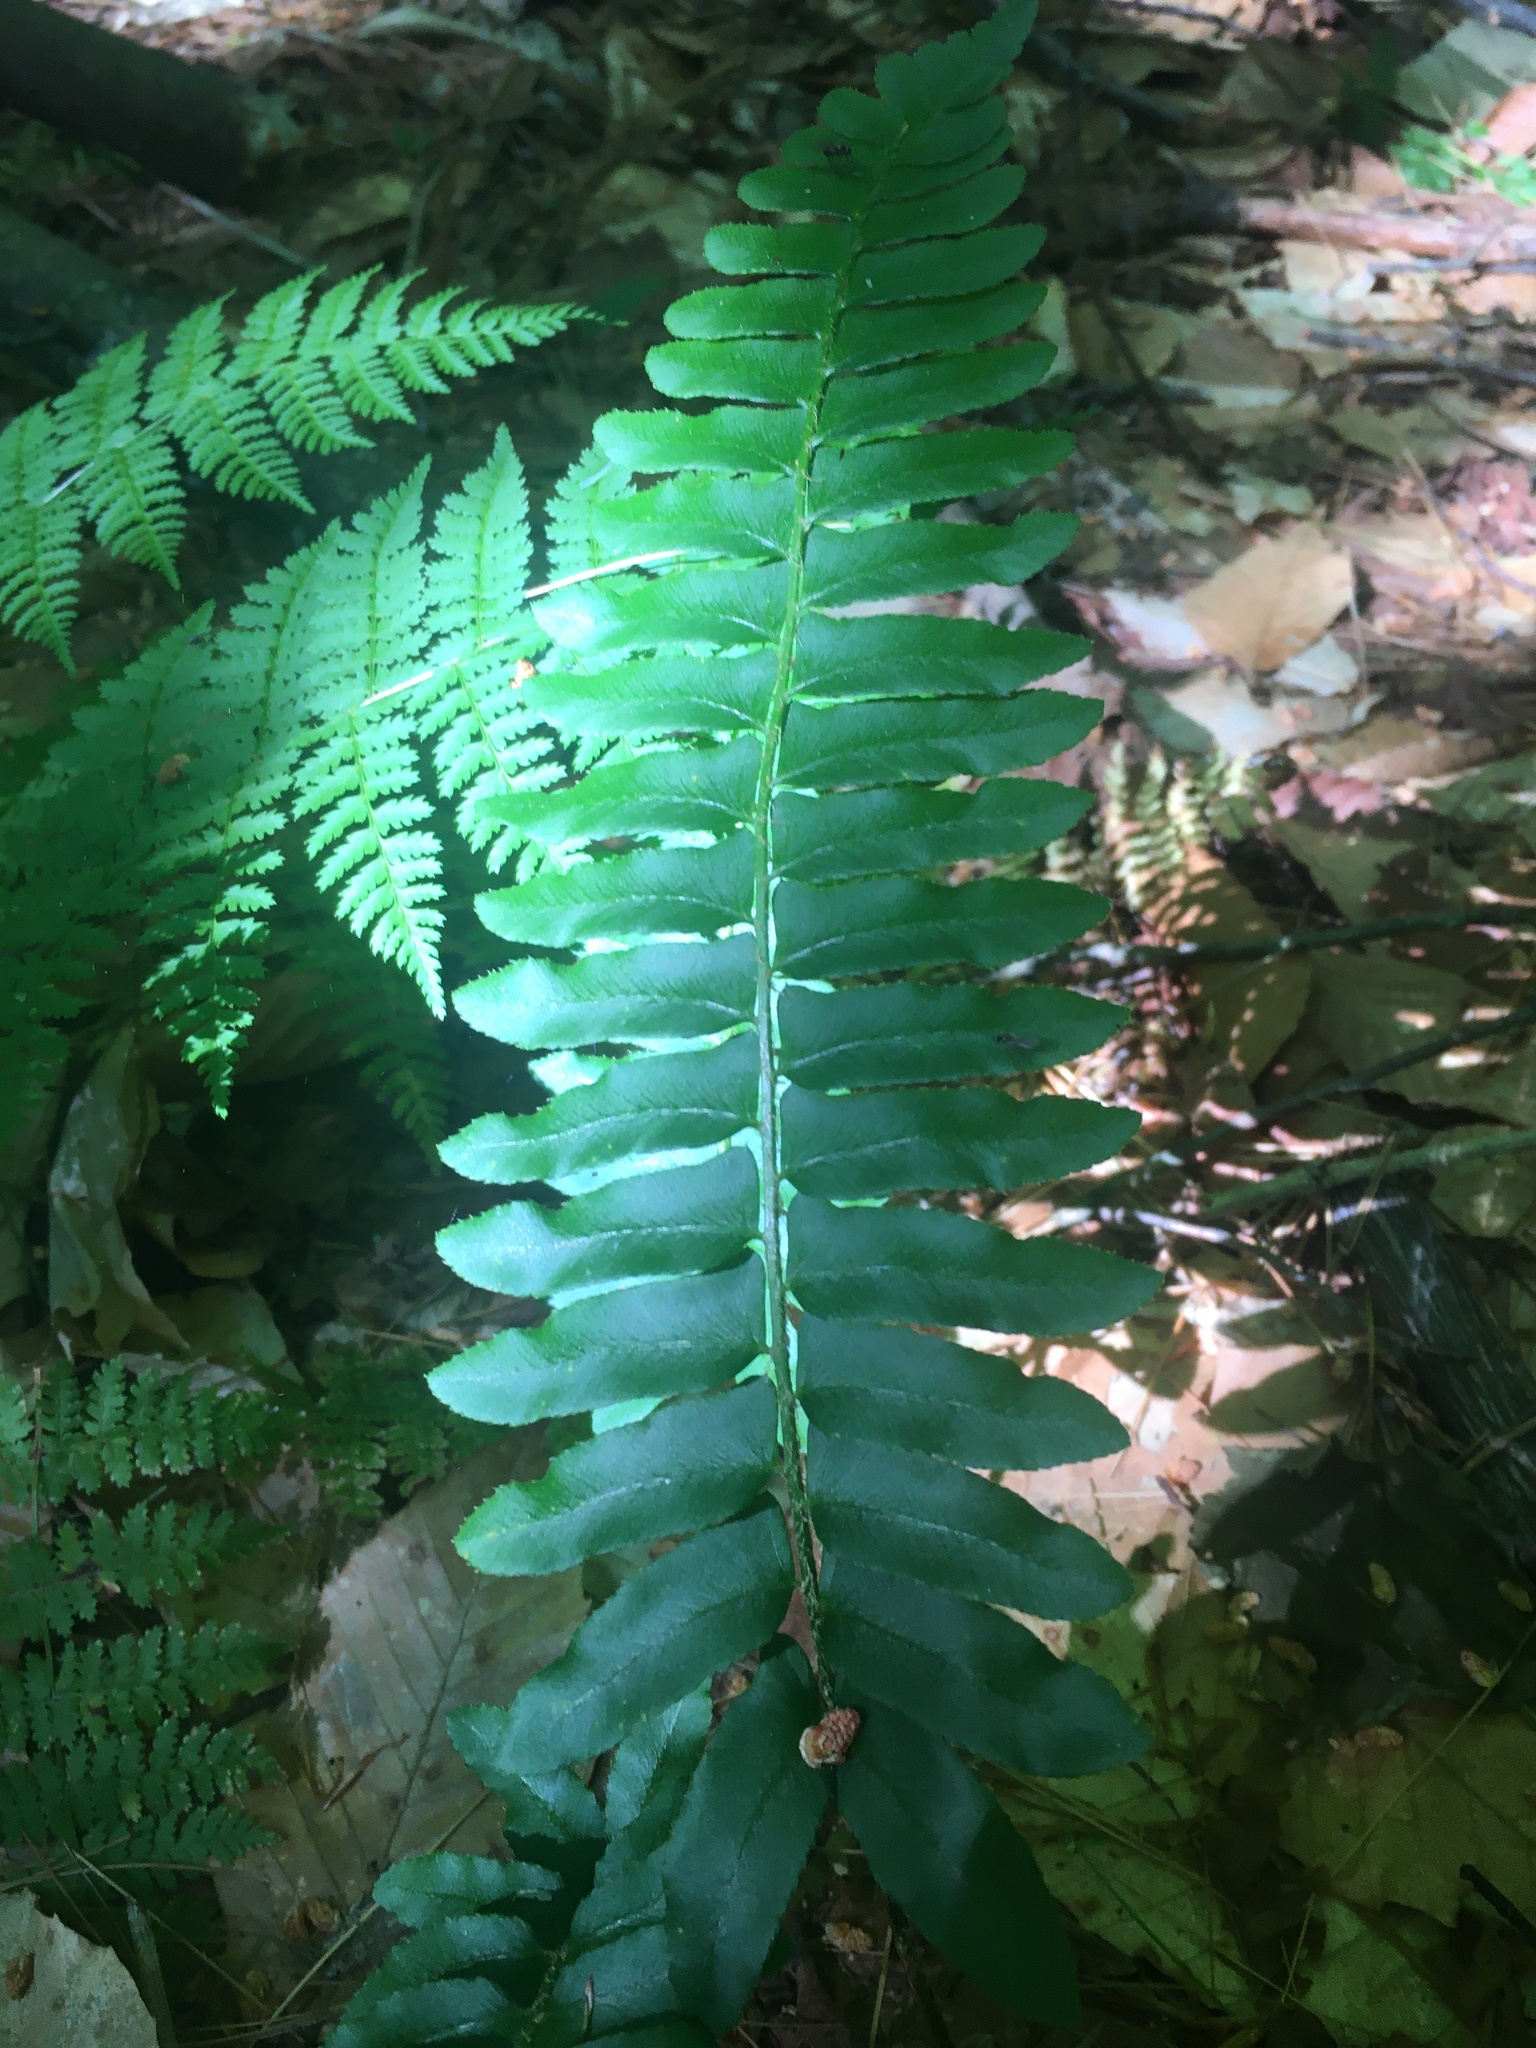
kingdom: Plantae
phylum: Tracheophyta
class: Polypodiopsida
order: Polypodiales
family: Dryopteridaceae
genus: Polystichum
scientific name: Polystichum acrostichoides
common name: Christmas fern
